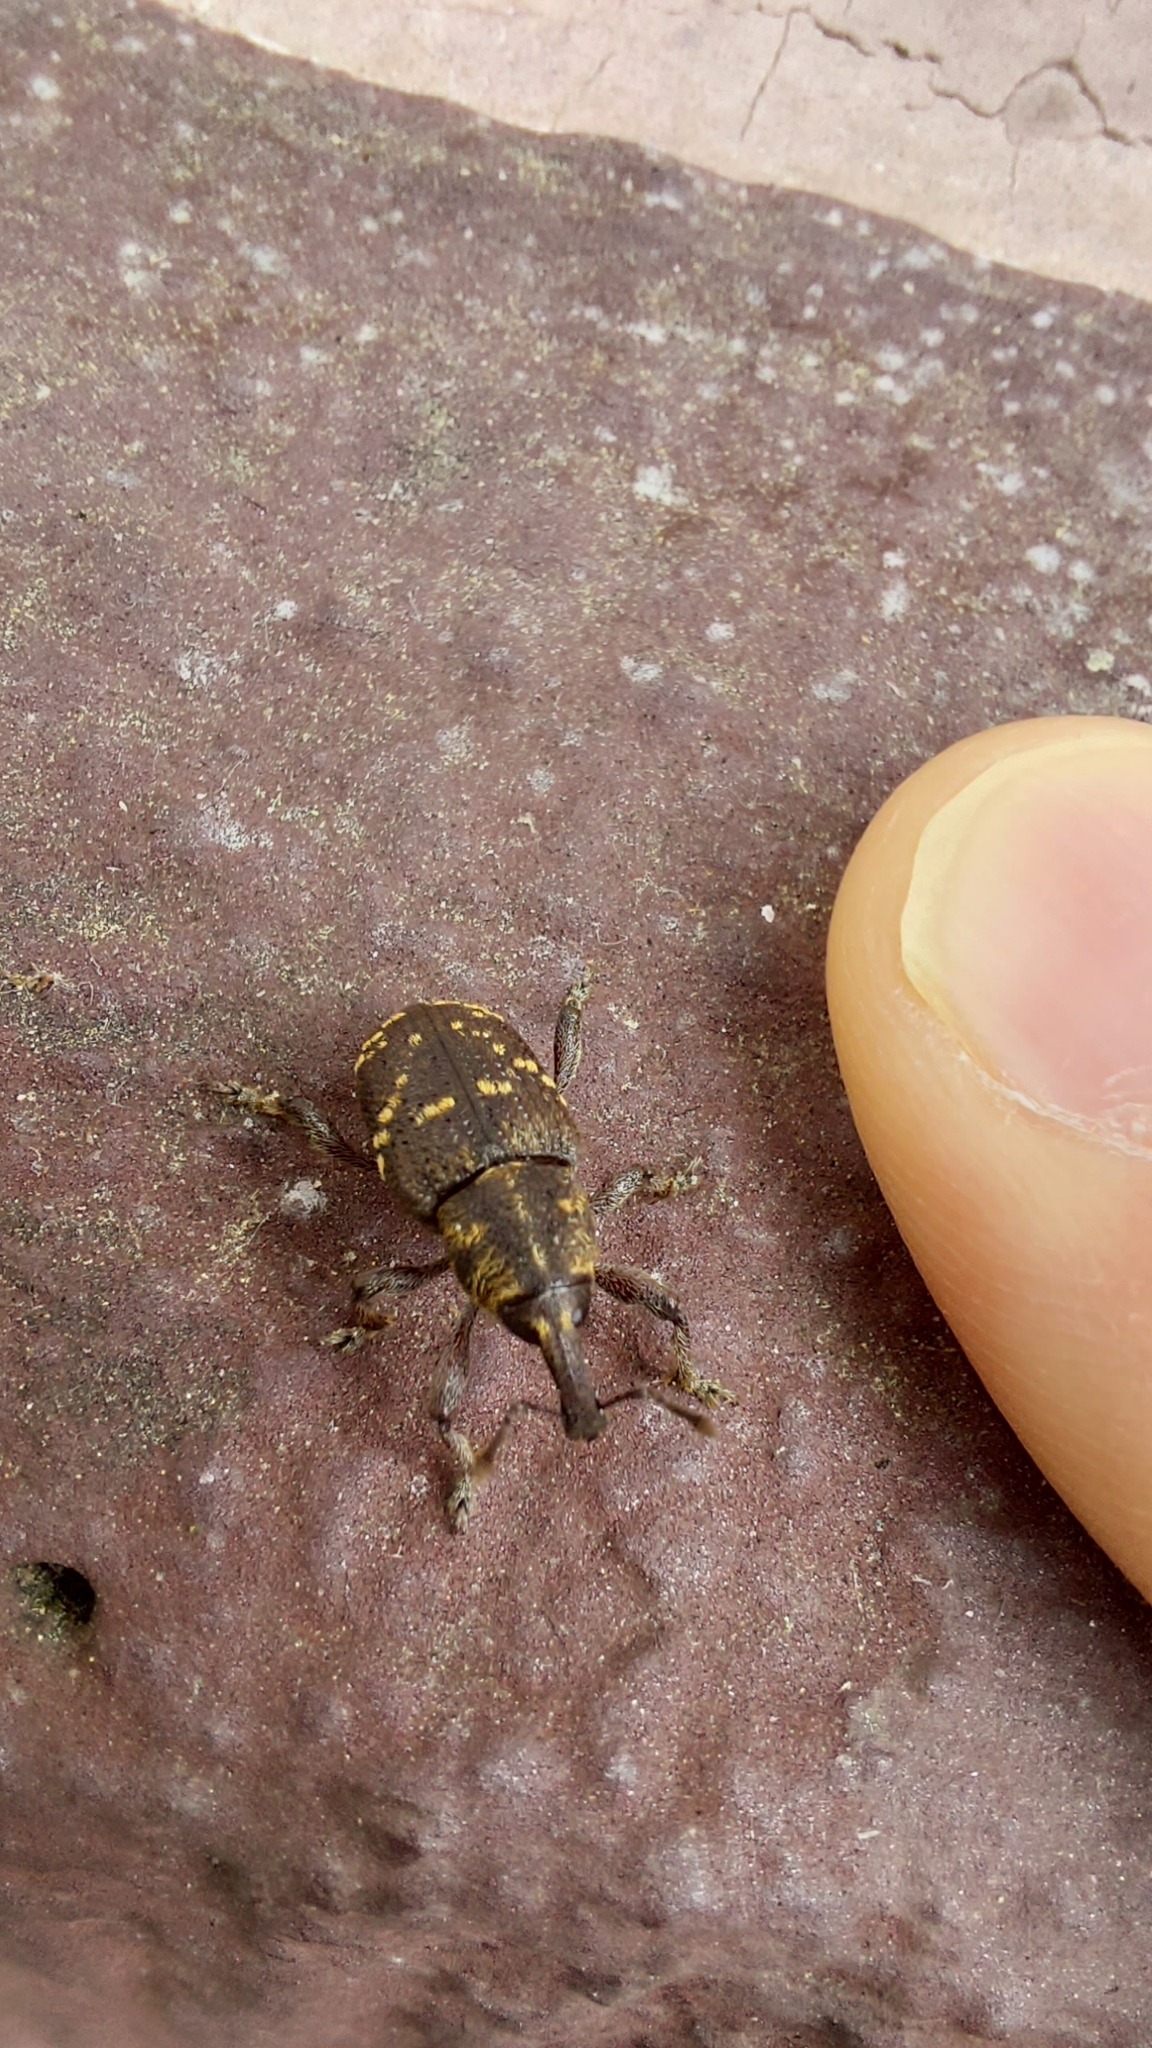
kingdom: Animalia
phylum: Arthropoda
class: Insecta
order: Coleoptera
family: Curculionidae
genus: Hylobius
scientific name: Hylobius abietis
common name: Large pine weevil
